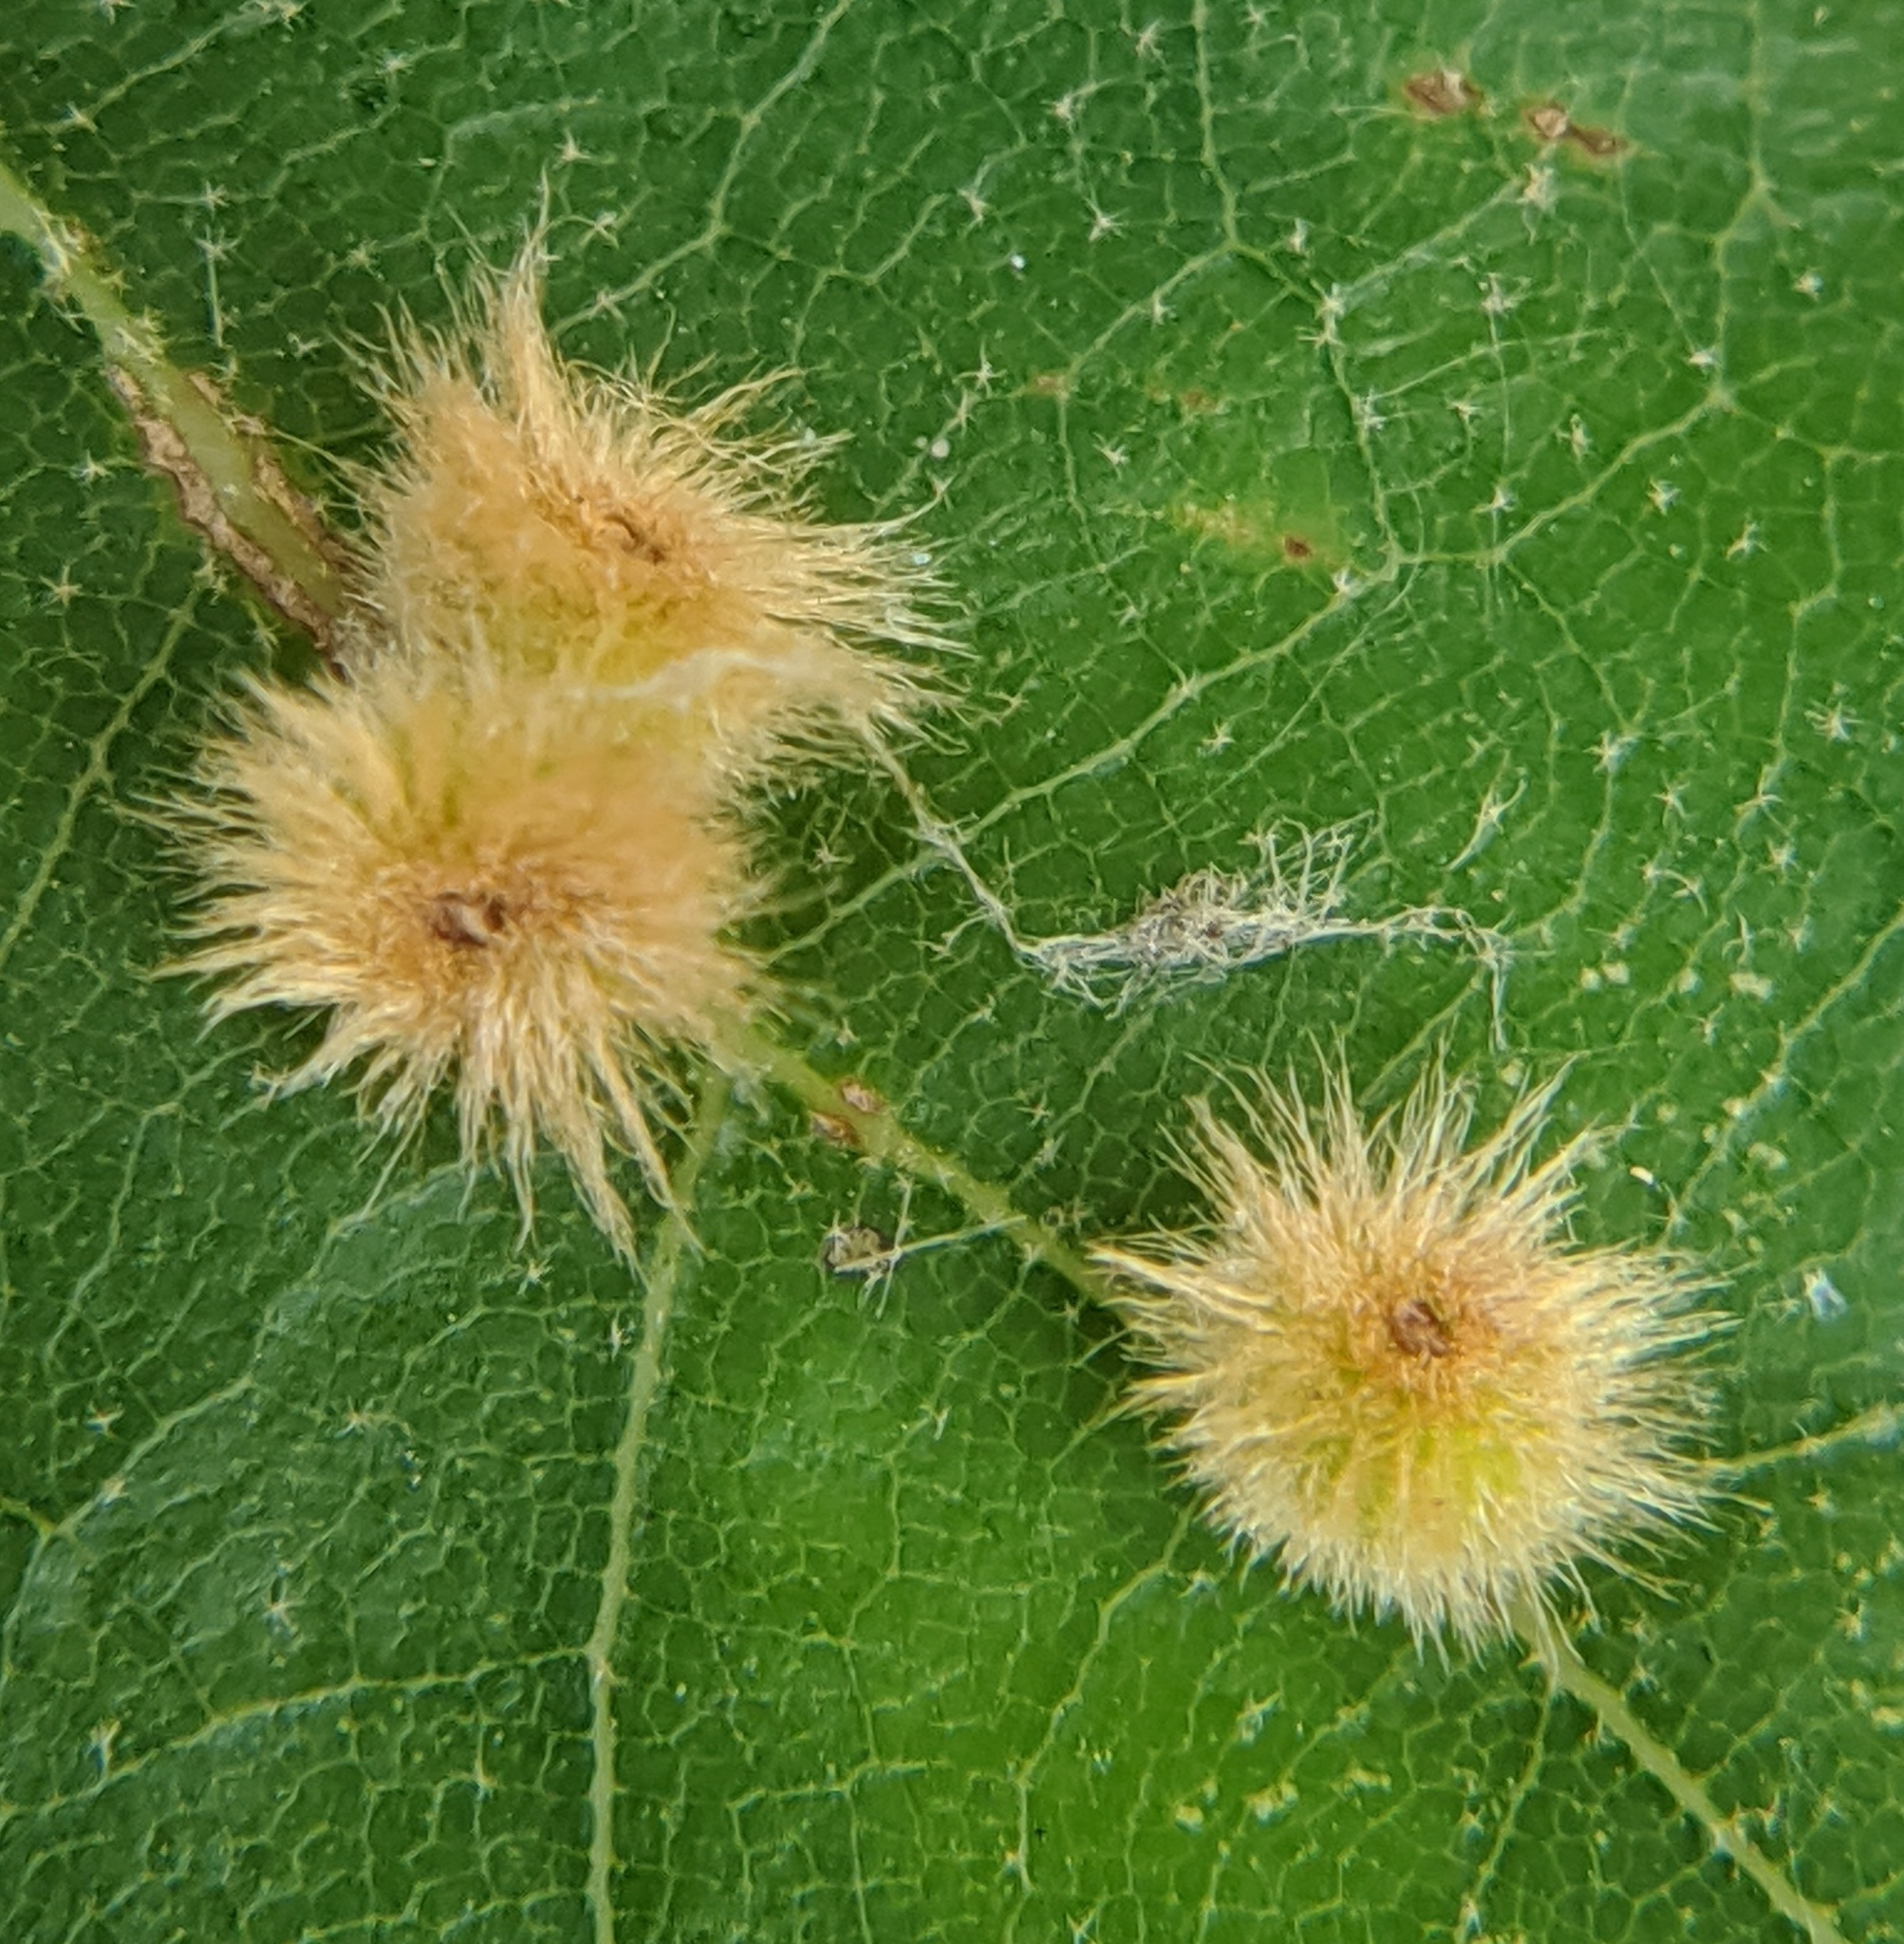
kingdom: Animalia
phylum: Arthropoda
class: Insecta
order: Hymenoptera
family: Cynipidae
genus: Callirhytis
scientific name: Callirhytis
